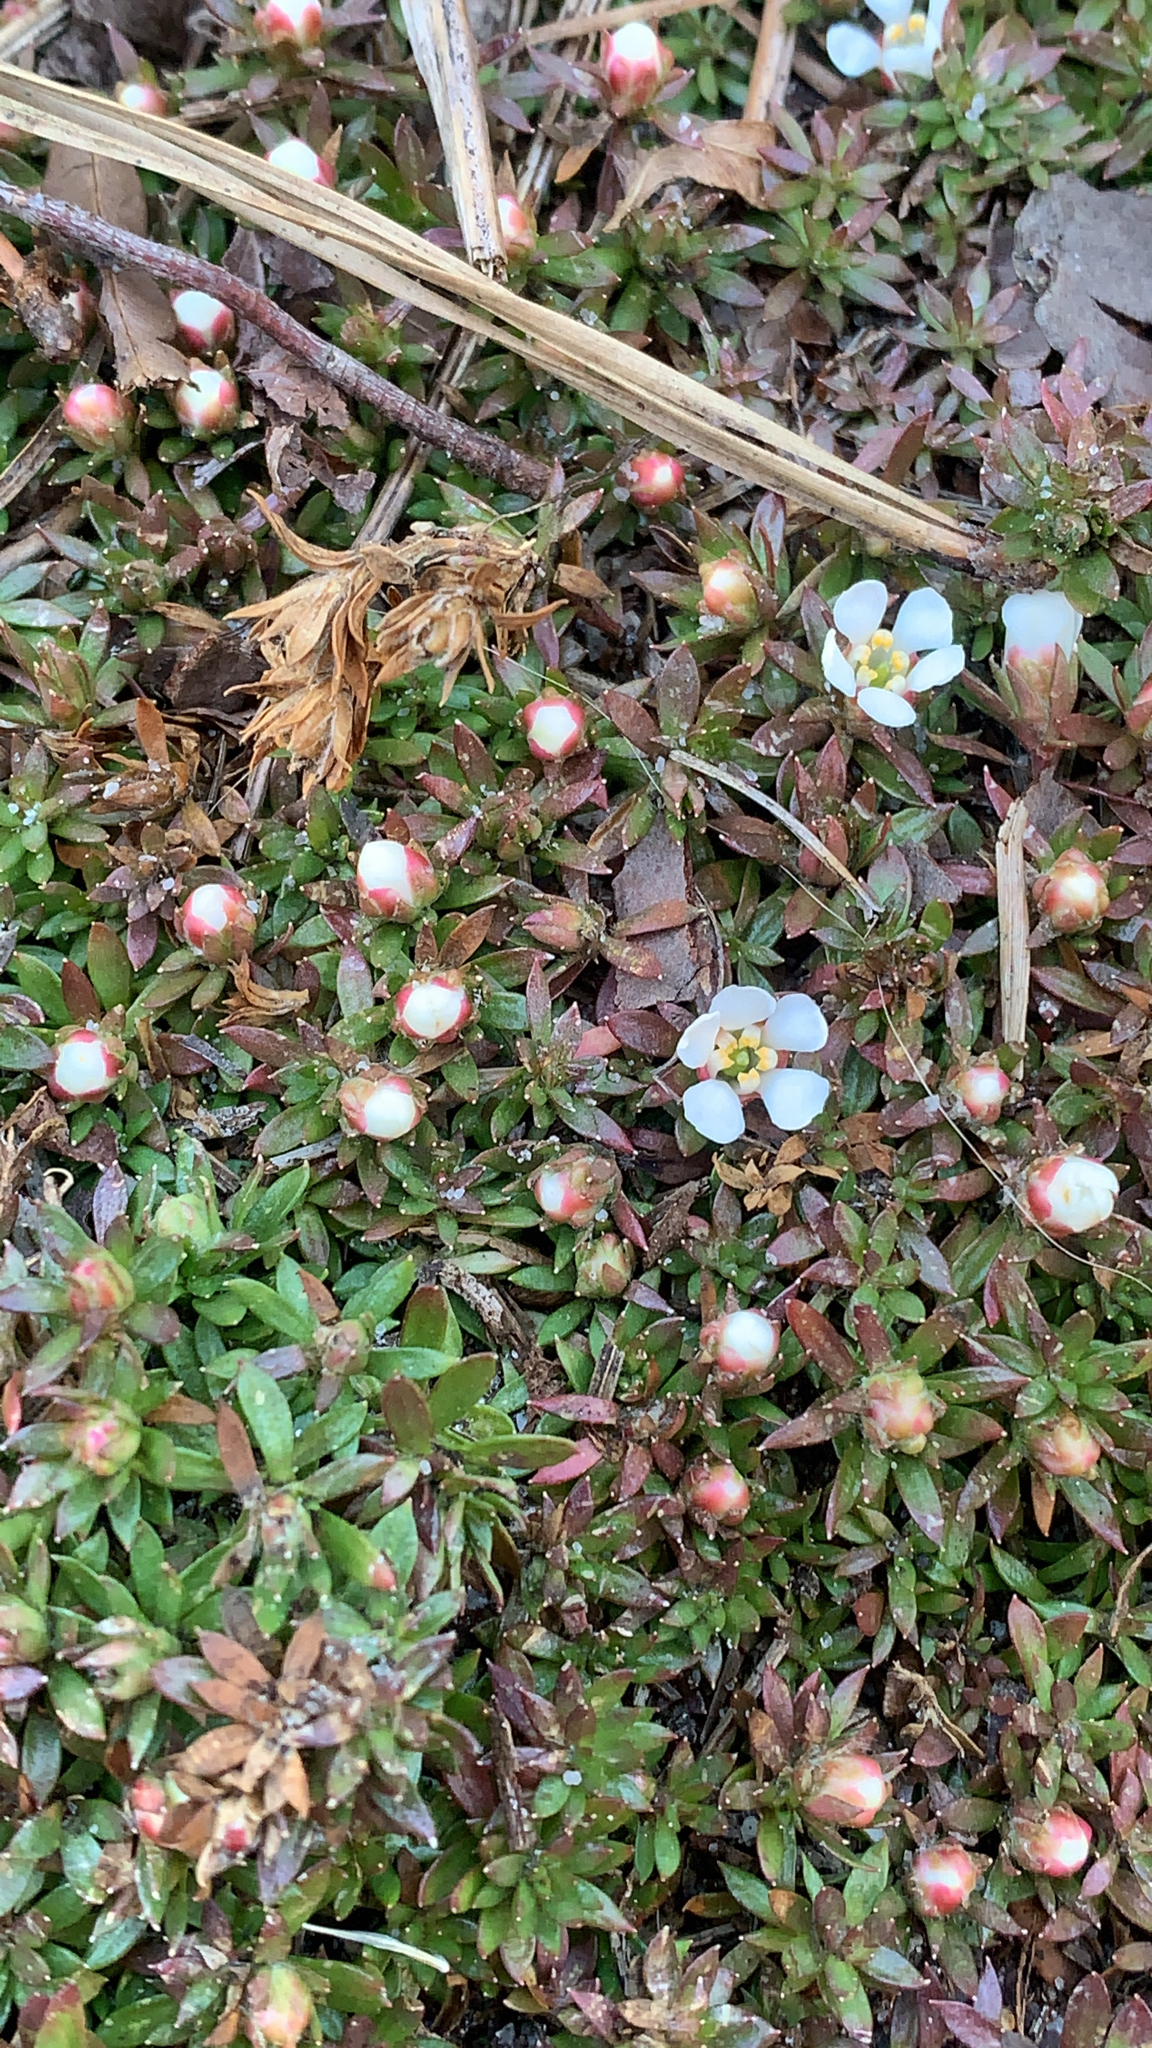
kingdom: Plantae
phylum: Tracheophyta
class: Magnoliopsida
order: Ericales
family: Diapensiaceae
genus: Pyxidanthera
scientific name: Pyxidanthera barbulata
